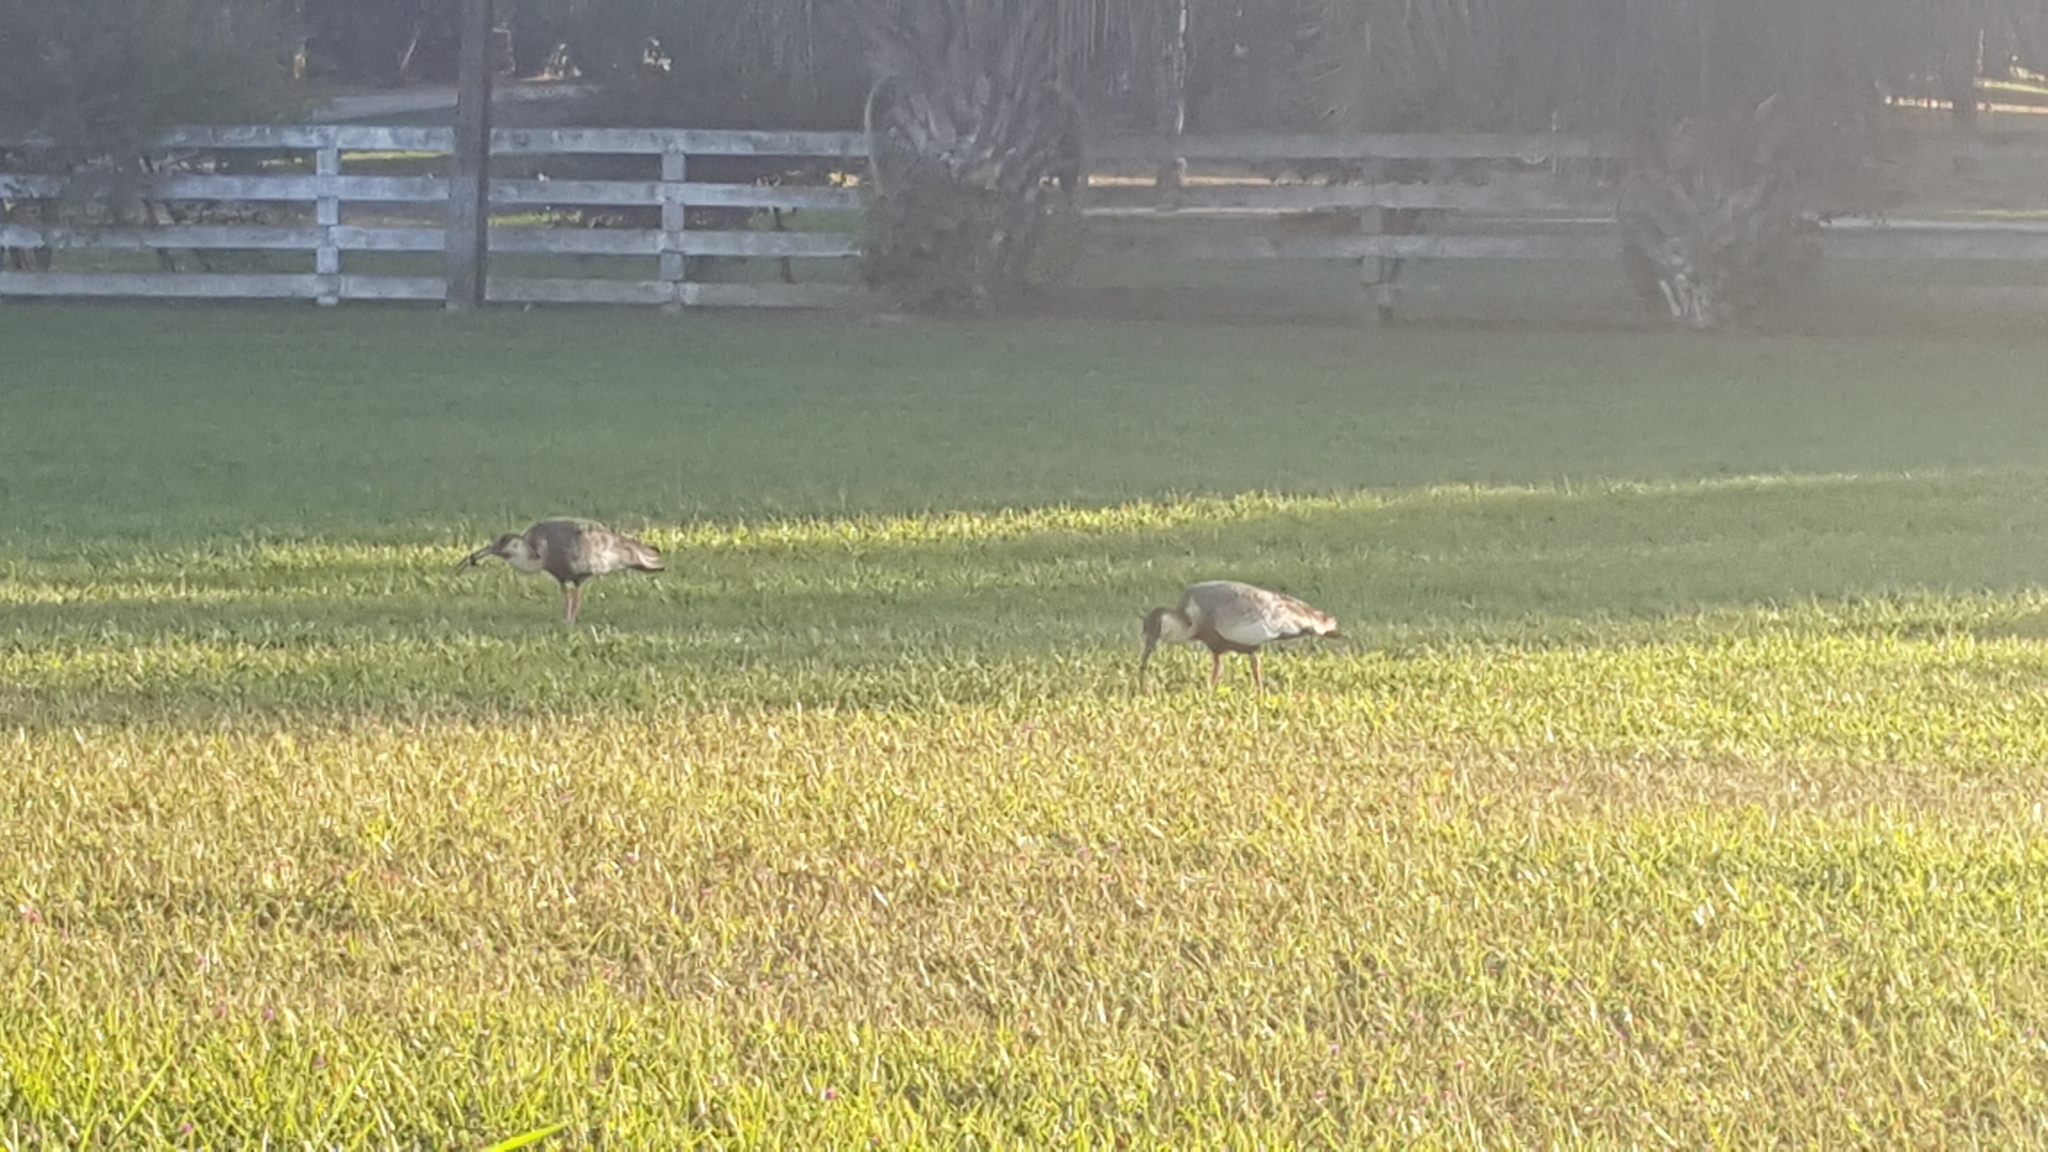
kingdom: Animalia
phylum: Chordata
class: Aves
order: Pelecaniformes
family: Threskiornithidae
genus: Theristicus
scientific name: Theristicus caudatus
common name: Buff-necked ibis
